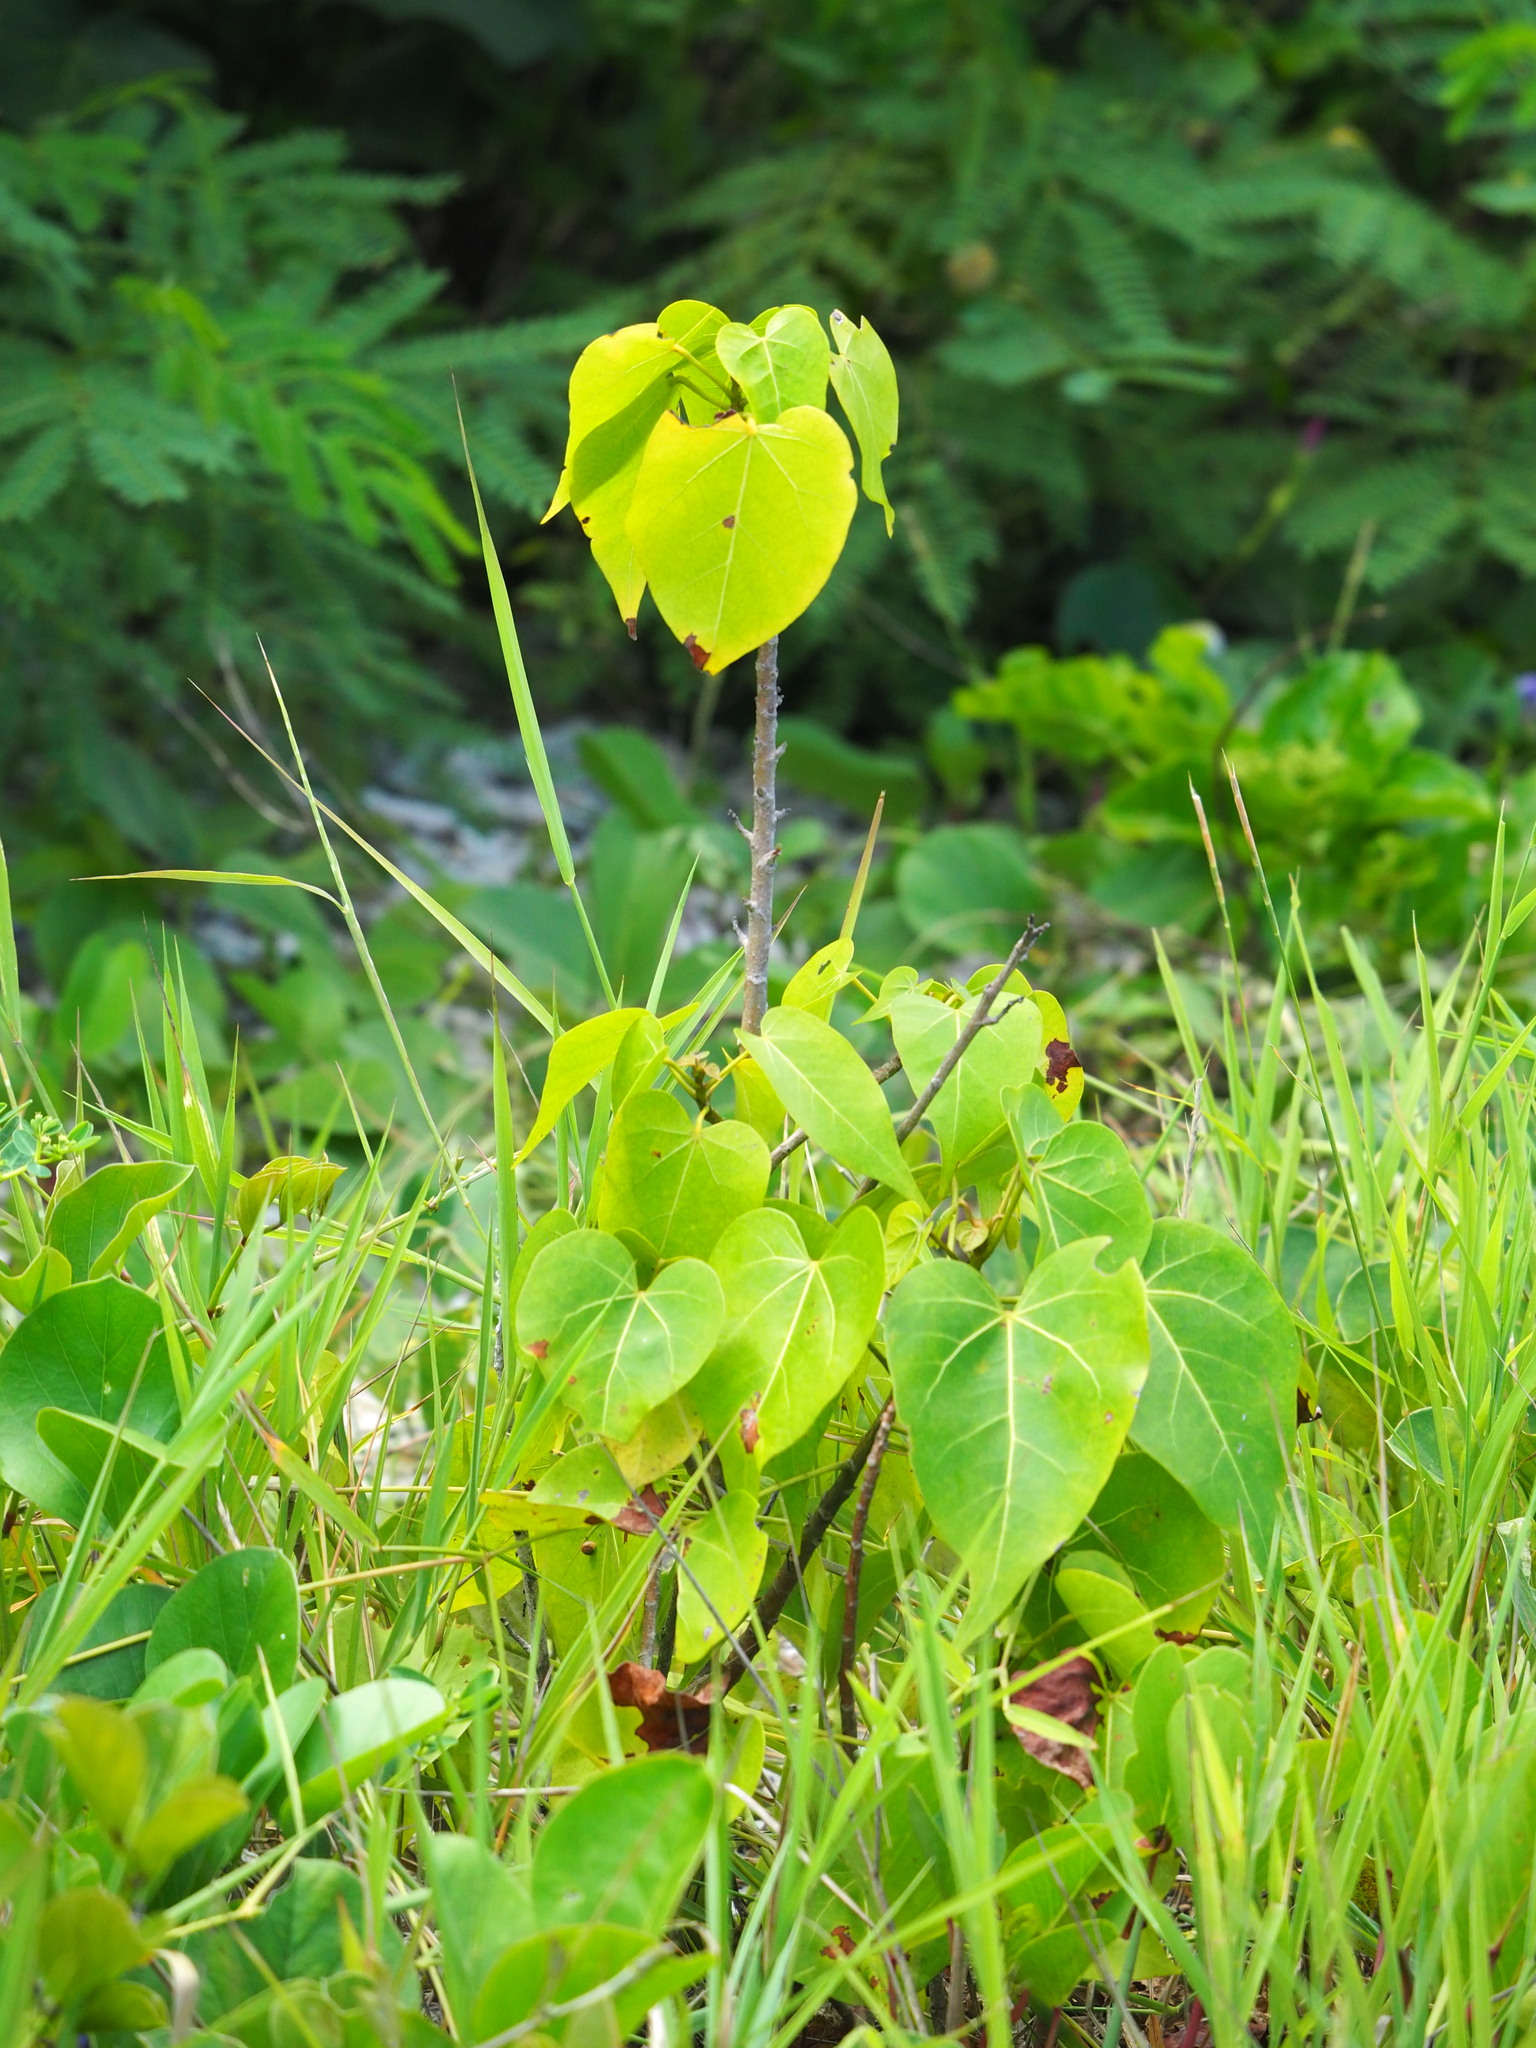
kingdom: Plantae
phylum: Tracheophyta
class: Magnoliopsida
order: Malvales
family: Malvaceae
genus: Thespesia
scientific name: Thespesia populnea
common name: Seaside mahoe
